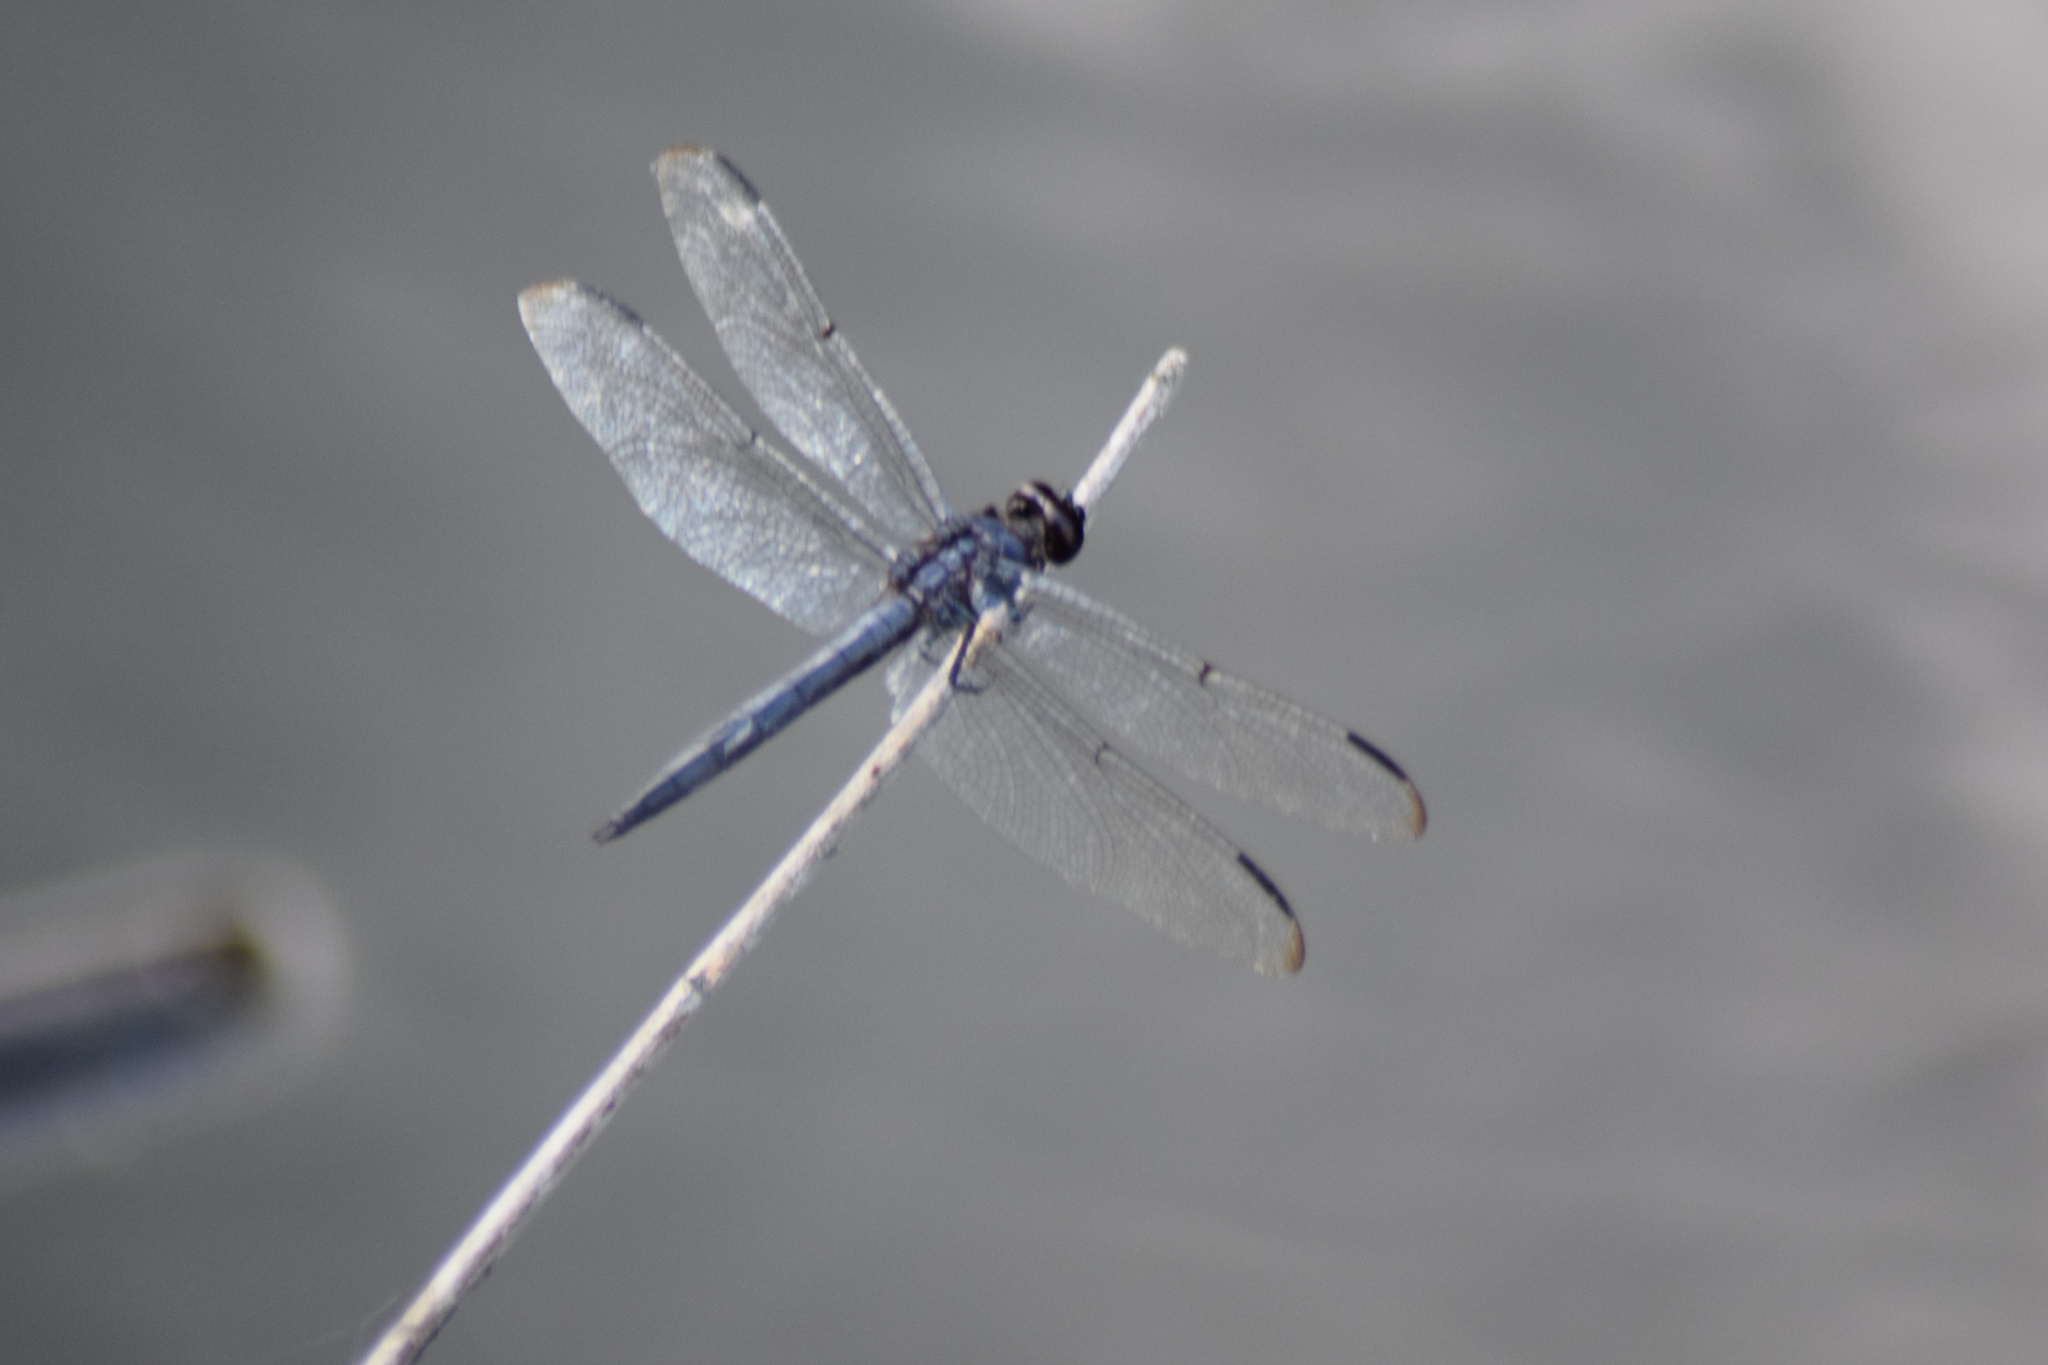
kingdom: Animalia
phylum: Arthropoda
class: Insecta
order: Odonata
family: Libellulidae
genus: Libellula
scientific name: Libellula incesta
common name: Slaty skimmer
